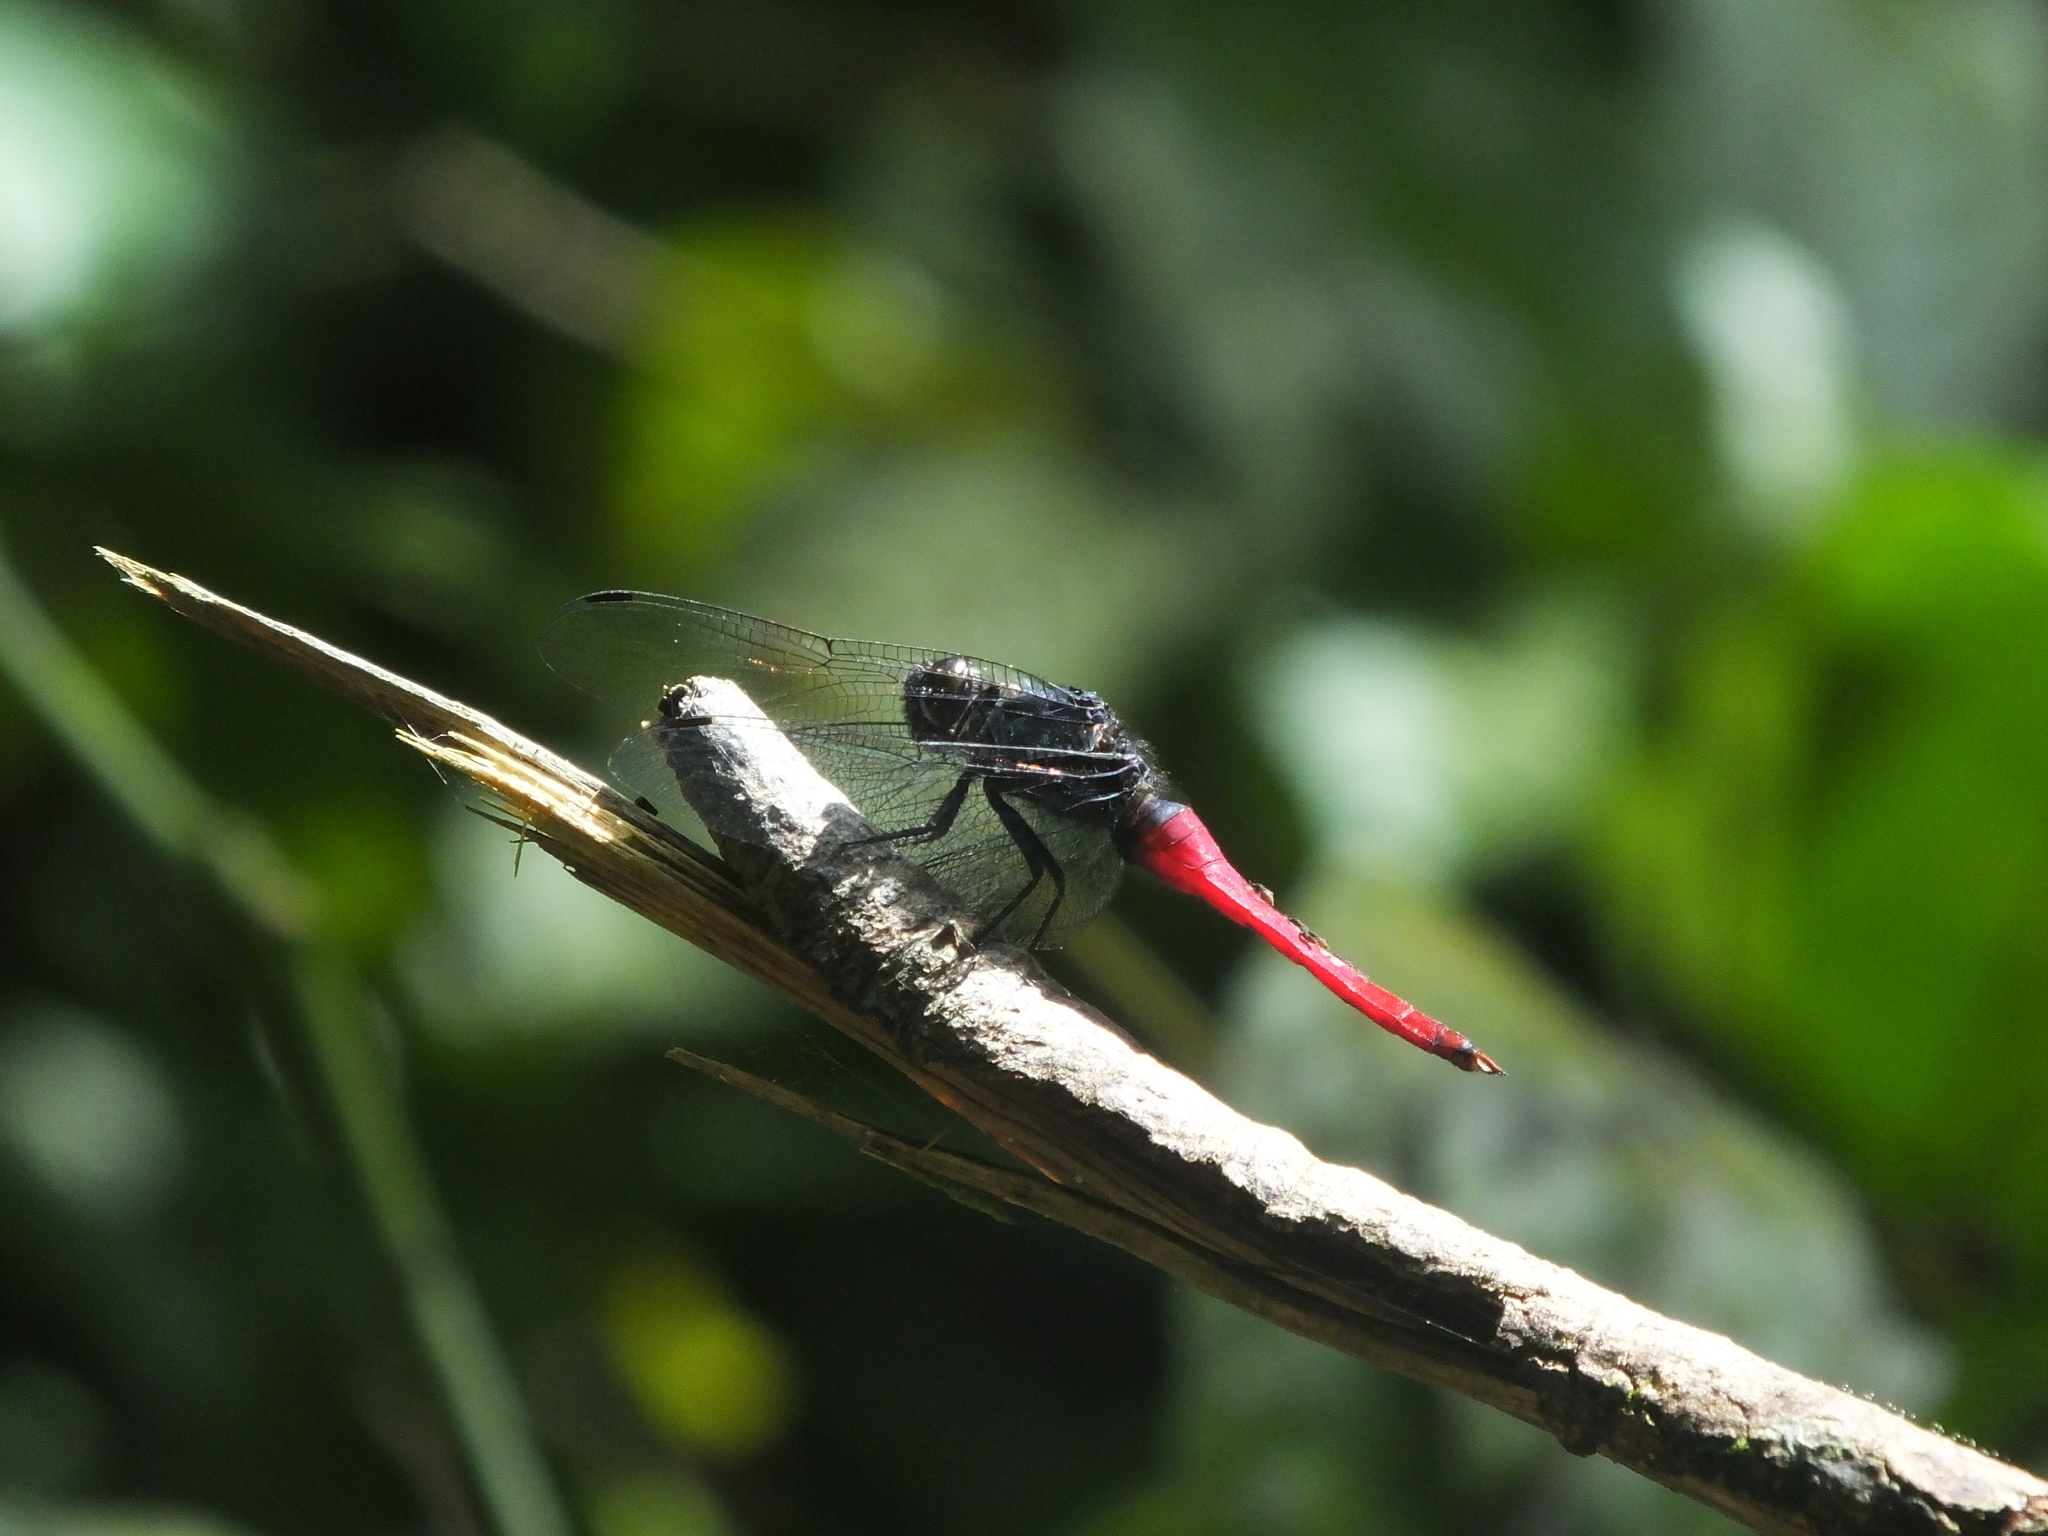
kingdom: Animalia
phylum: Arthropoda
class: Insecta
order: Odonata
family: Libellulidae
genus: Orthetrum
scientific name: Orthetrum pruinosum
